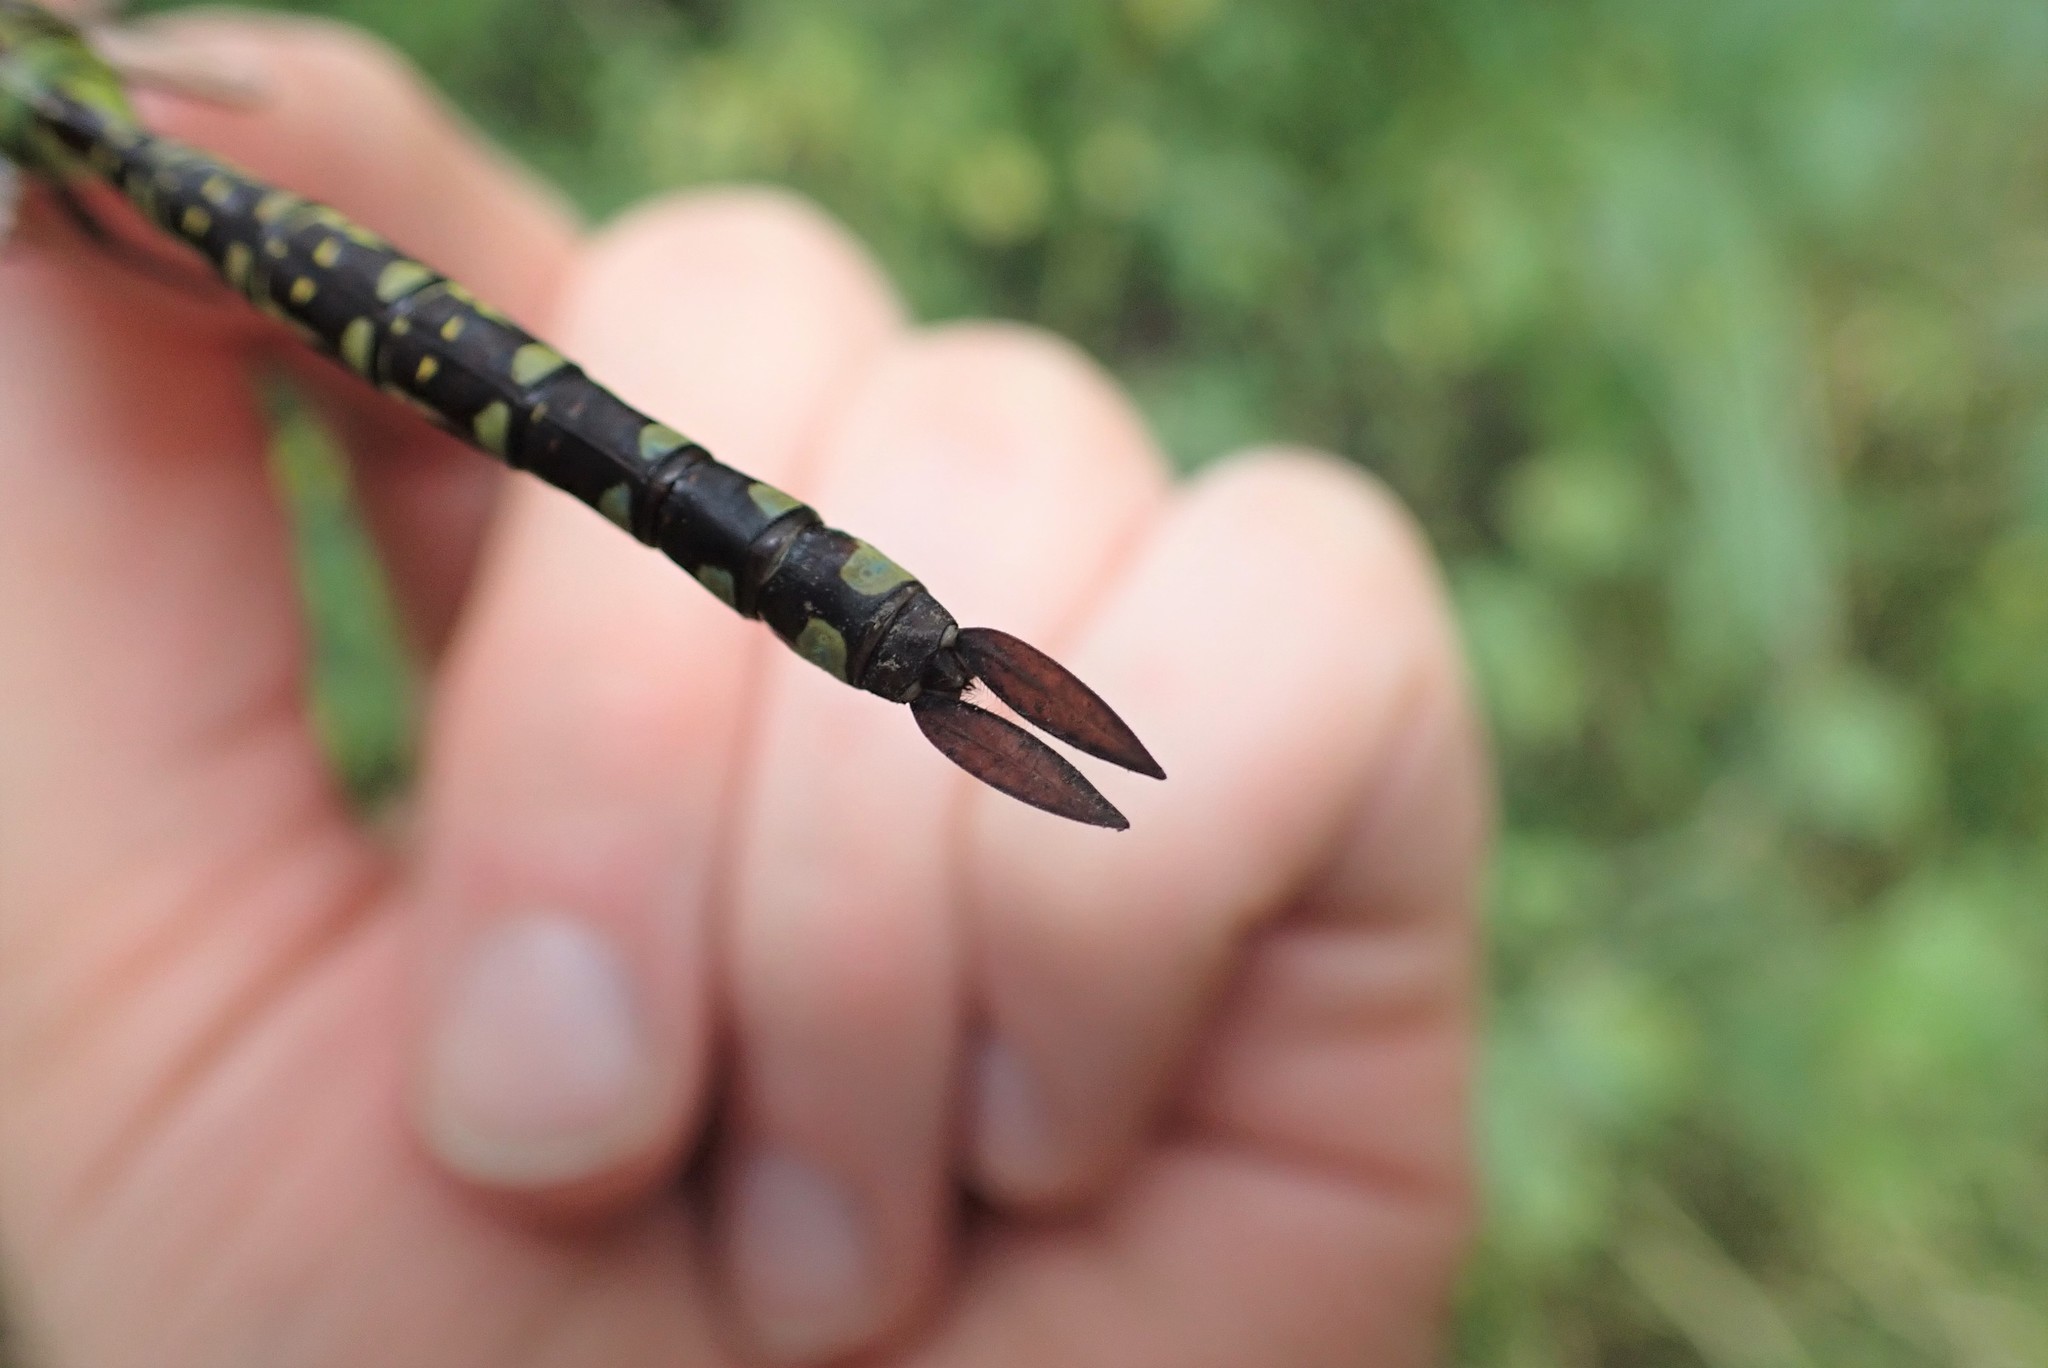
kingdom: Animalia
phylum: Arthropoda
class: Insecta
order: Odonata
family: Aeshnidae
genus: Aeshna
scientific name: Aeshna constricta
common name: Lance-tipped darner
